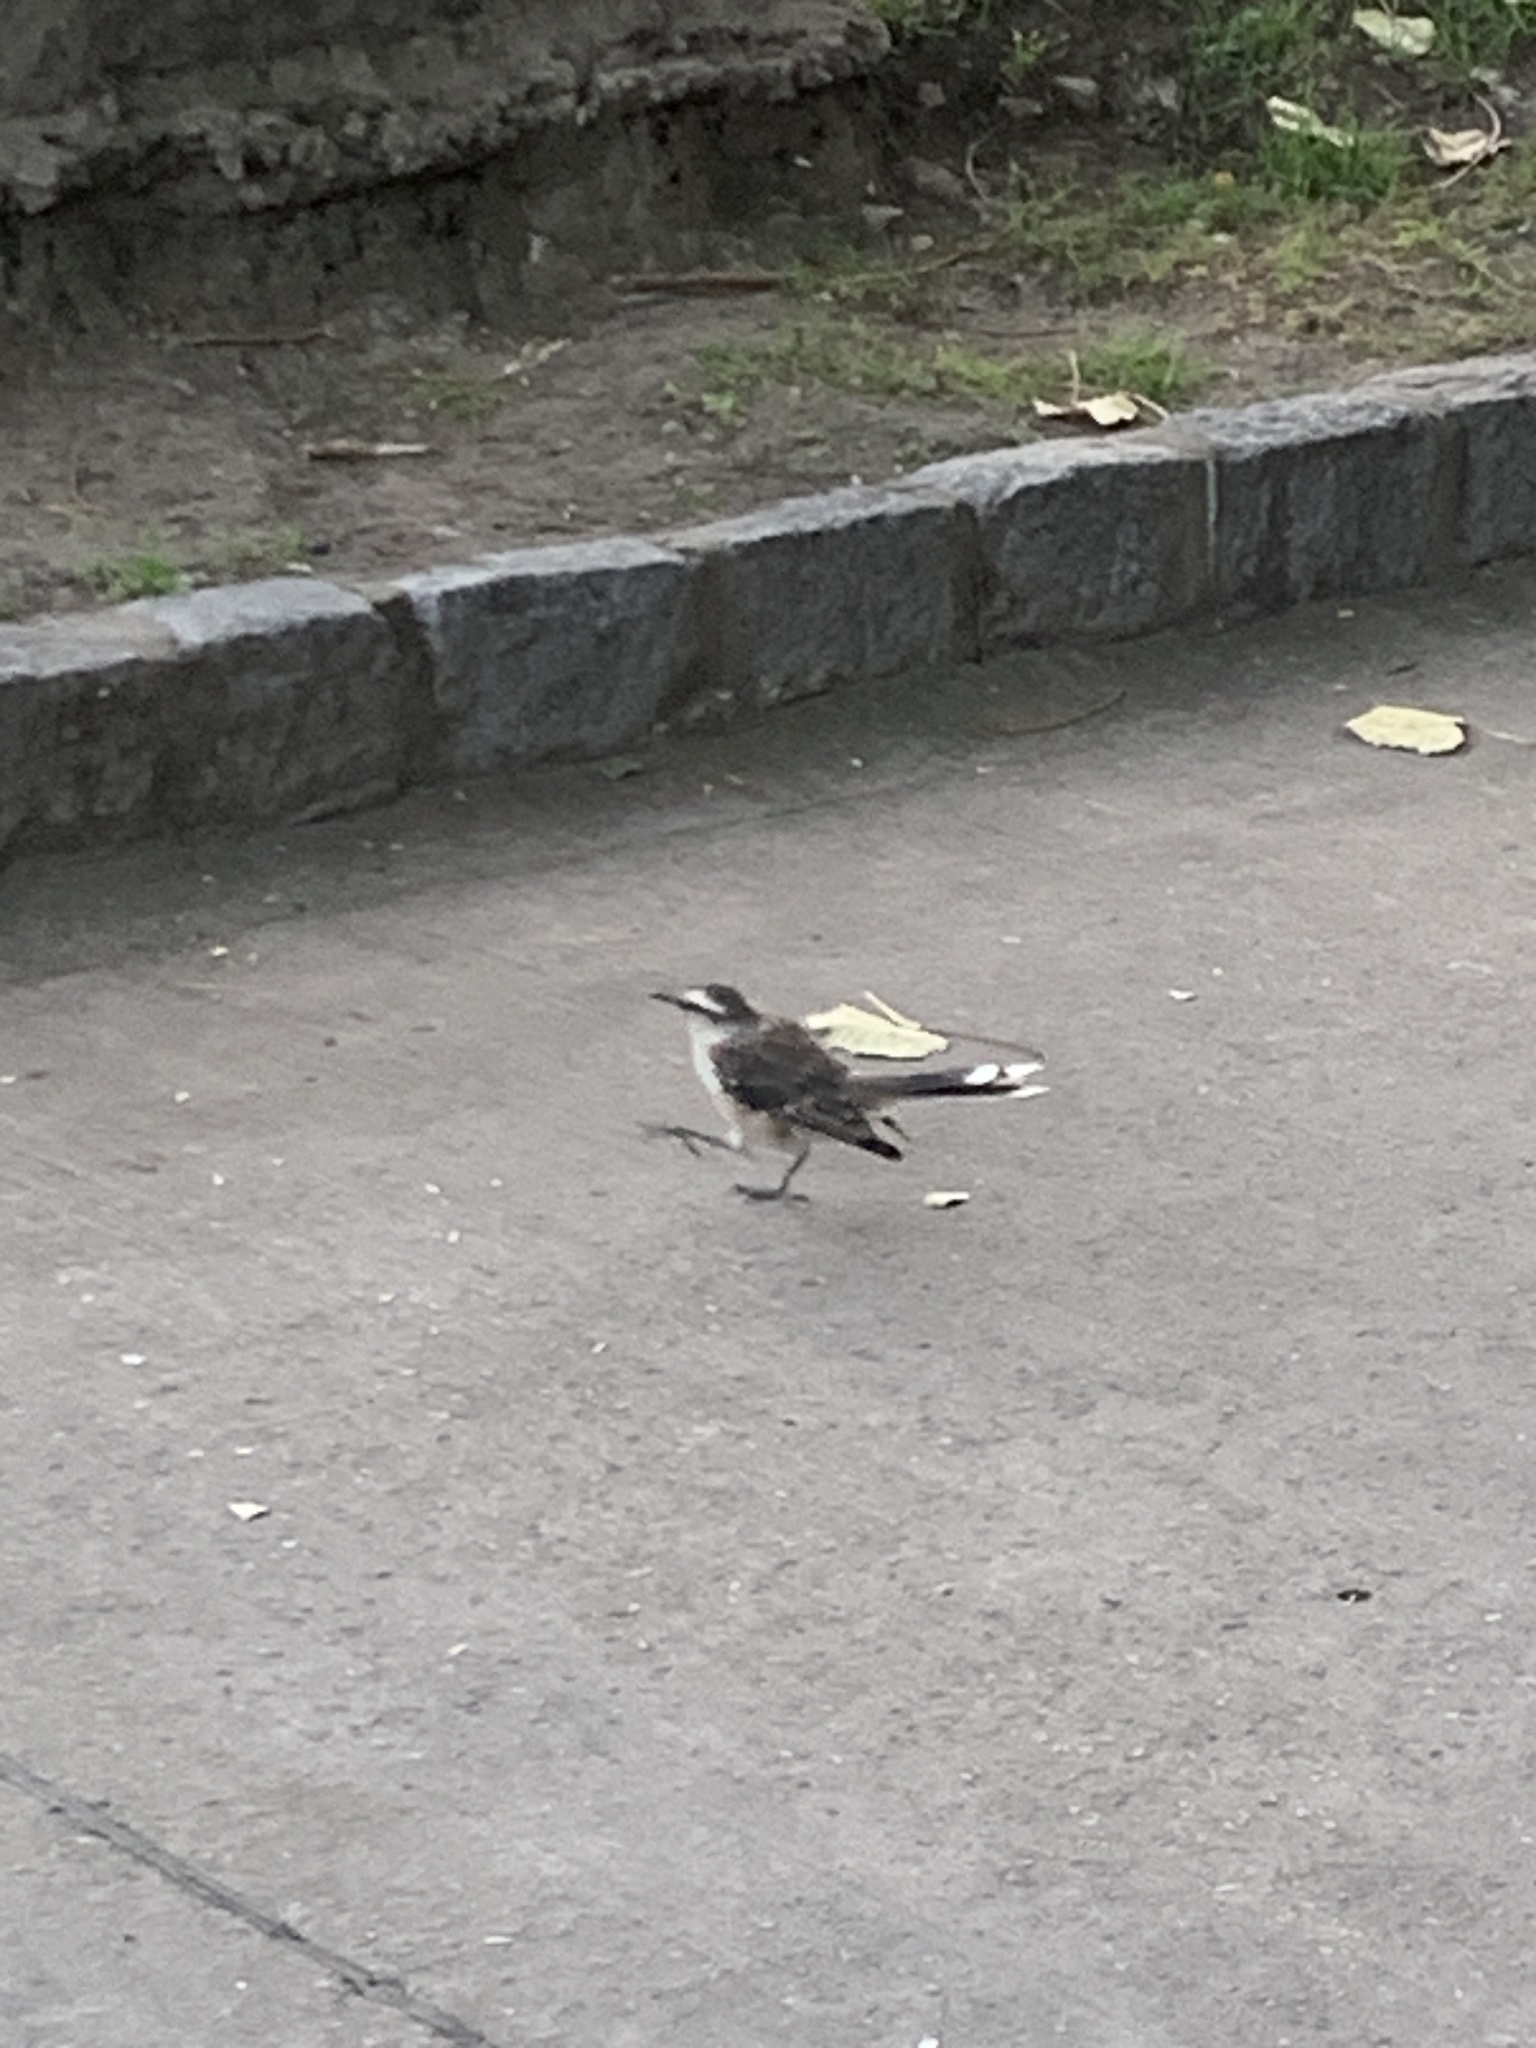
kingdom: Animalia
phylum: Chordata
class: Aves
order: Passeriformes
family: Mimidae
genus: Mimus
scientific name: Mimus saturninus
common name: Chalk-browed mockingbird
